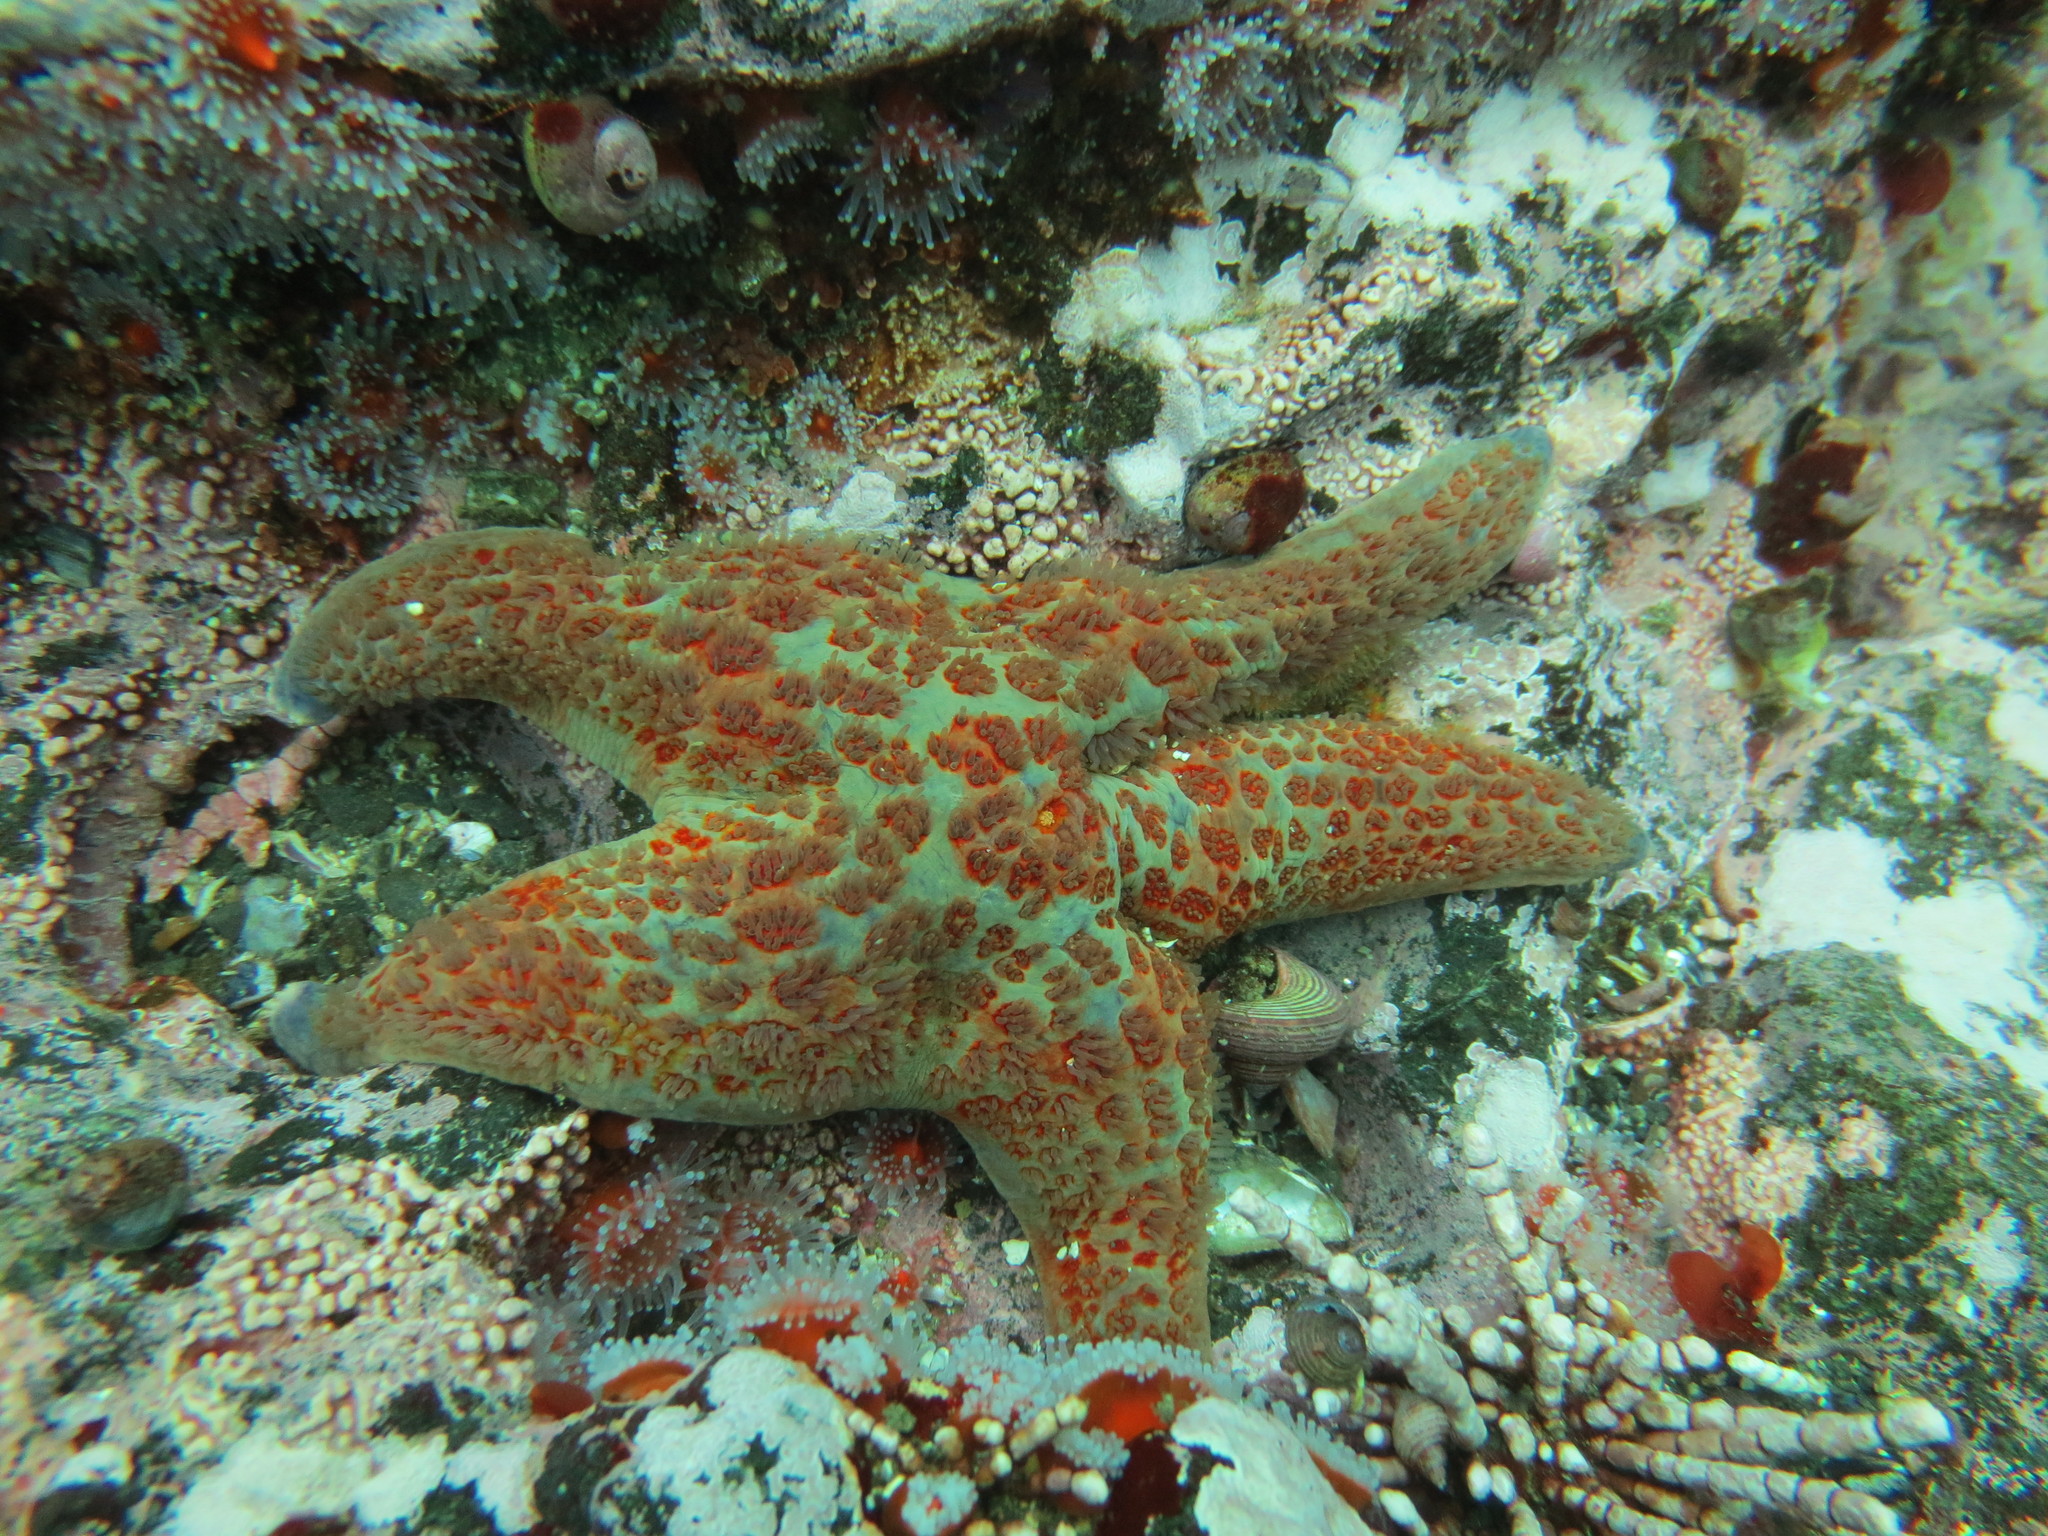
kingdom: Animalia
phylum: Echinodermata
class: Asteroidea
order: Valvatida
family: Asteropseidae
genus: Dermasterias
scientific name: Dermasterias imbricata
